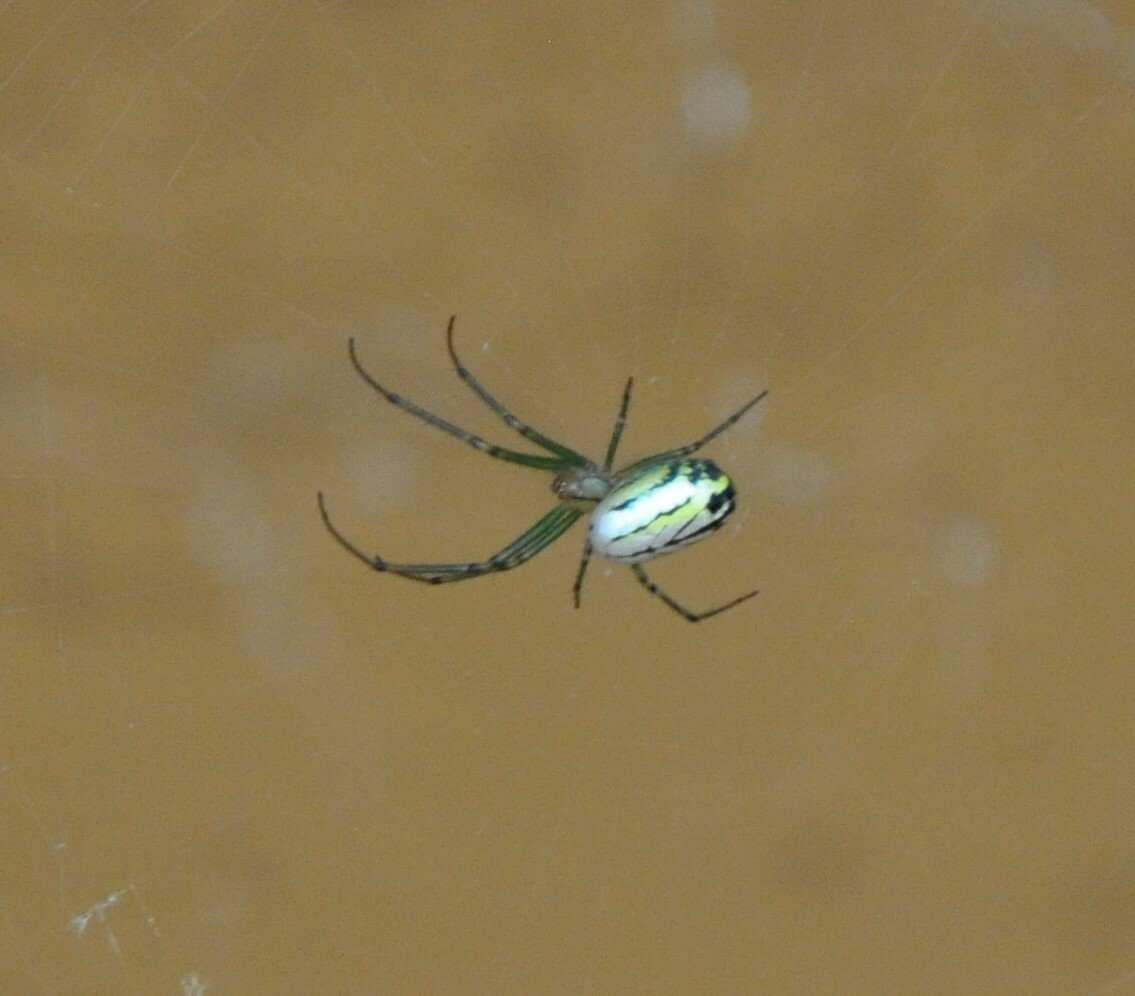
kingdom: Animalia
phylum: Arthropoda
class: Arachnida
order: Araneae
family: Tetragnathidae
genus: Leucauge
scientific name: Leucauge venusta
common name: Longjawed orb weavers
